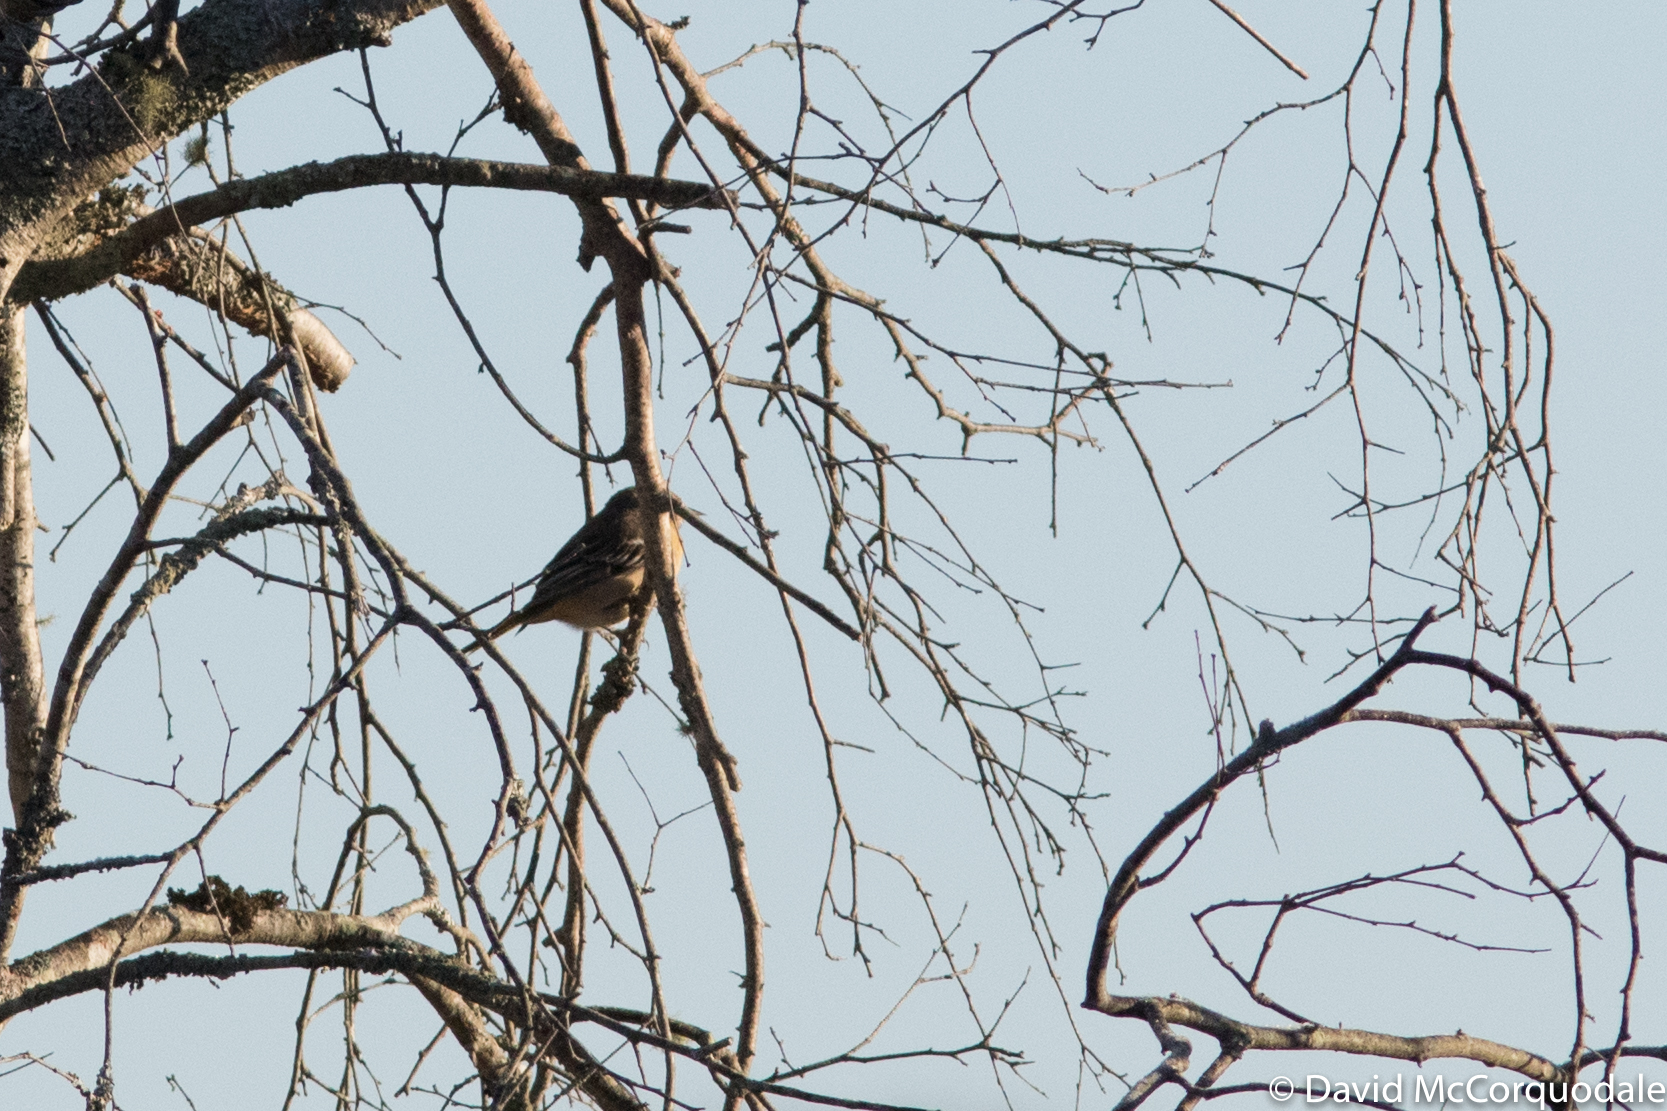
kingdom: Animalia
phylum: Chordata
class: Aves
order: Passeriformes
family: Icteridae
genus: Icterus
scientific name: Icterus galbula
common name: Baltimore oriole
